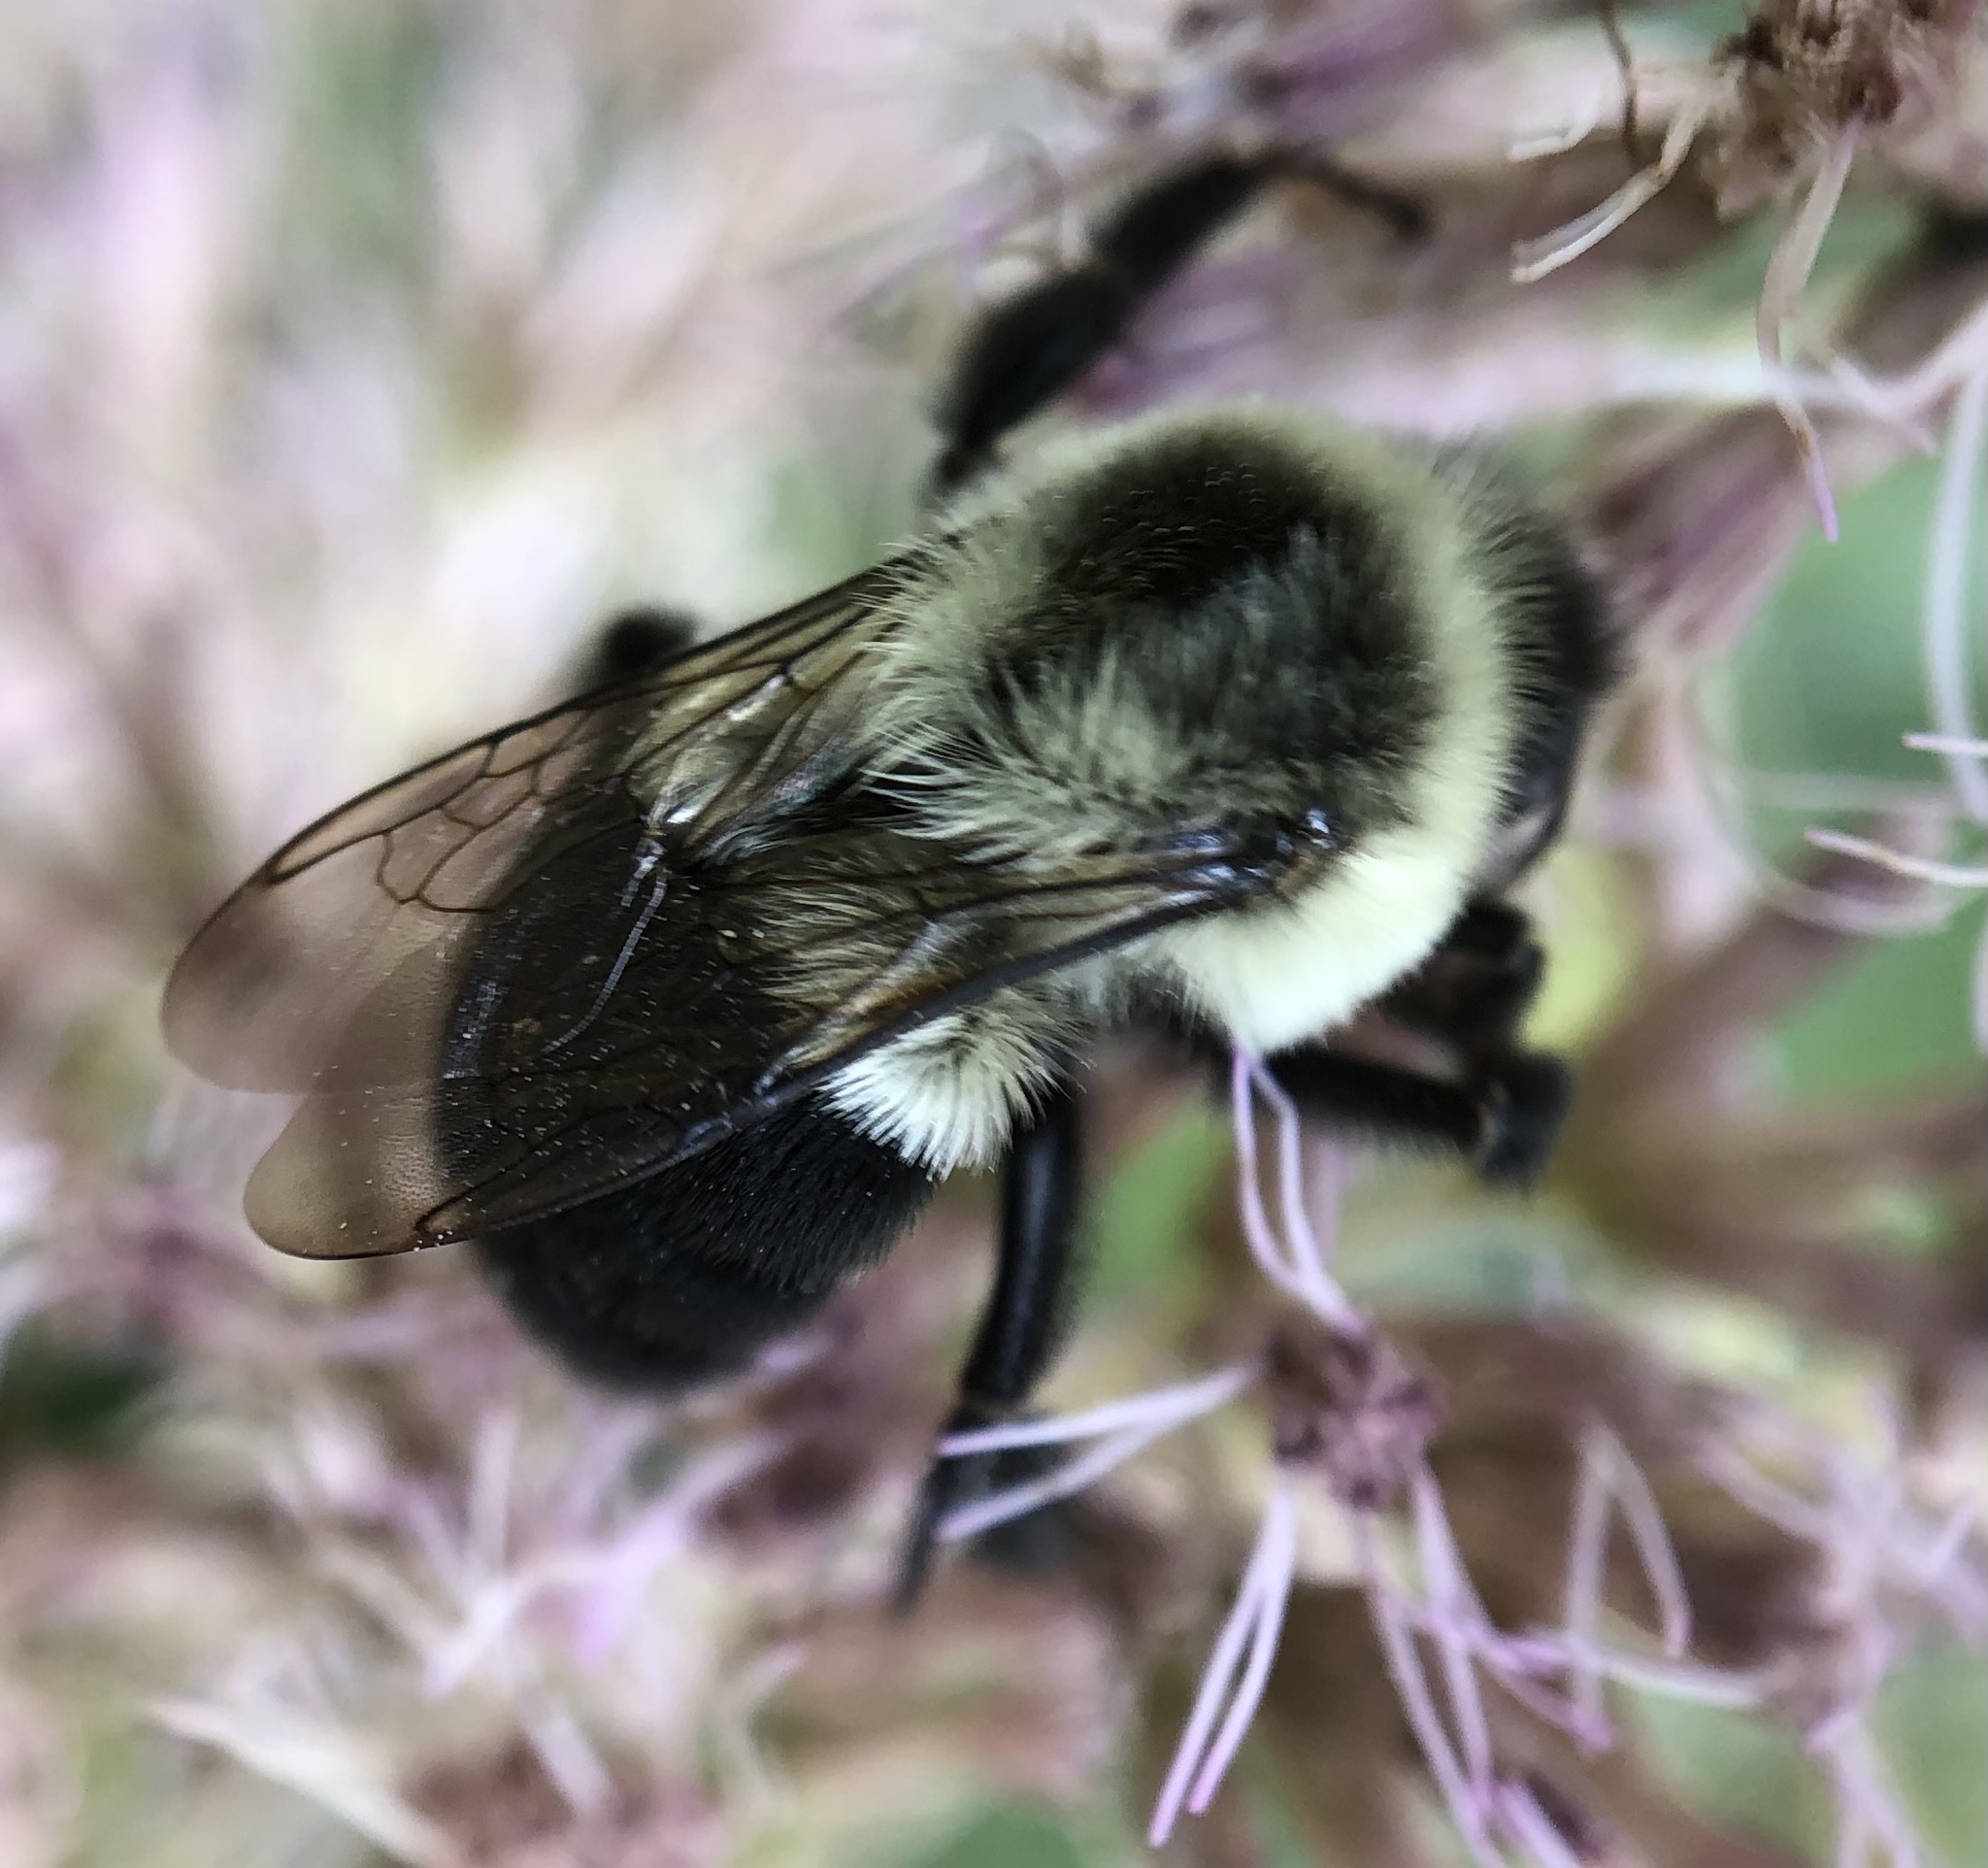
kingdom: Animalia
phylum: Arthropoda
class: Insecta
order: Hymenoptera
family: Apidae
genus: Bombus
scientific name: Bombus impatiens
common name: Common eastern bumble bee
